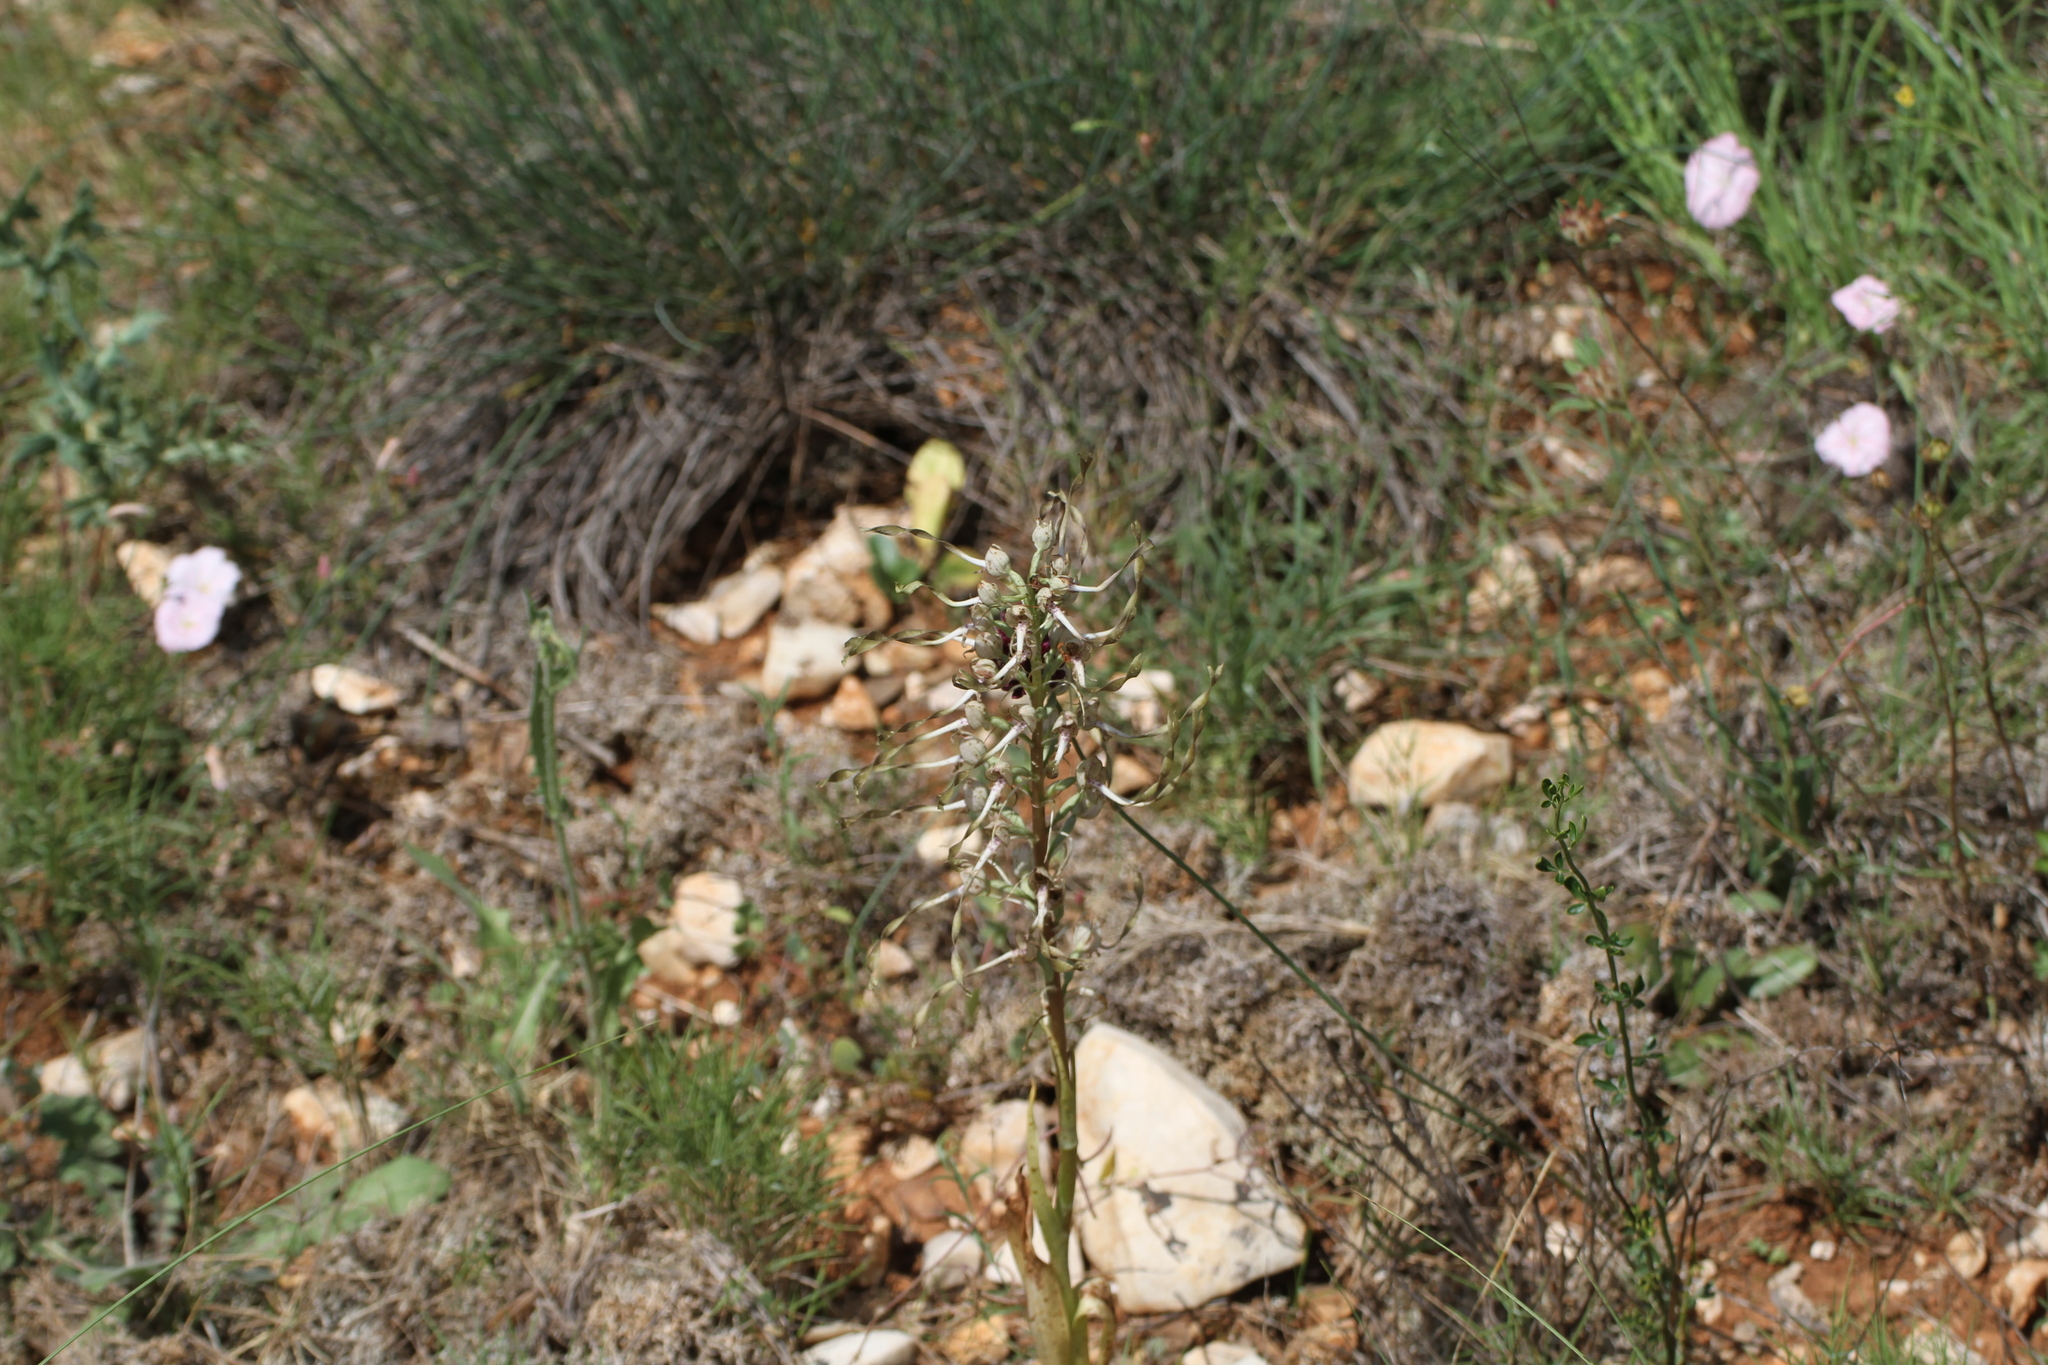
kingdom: Plantae
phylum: Tracheophyta
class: Liliopsida
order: Asparagales
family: Orchidaceae
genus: Himantoglossum
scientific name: Himantoglossum hircinum
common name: Lizard orchid
